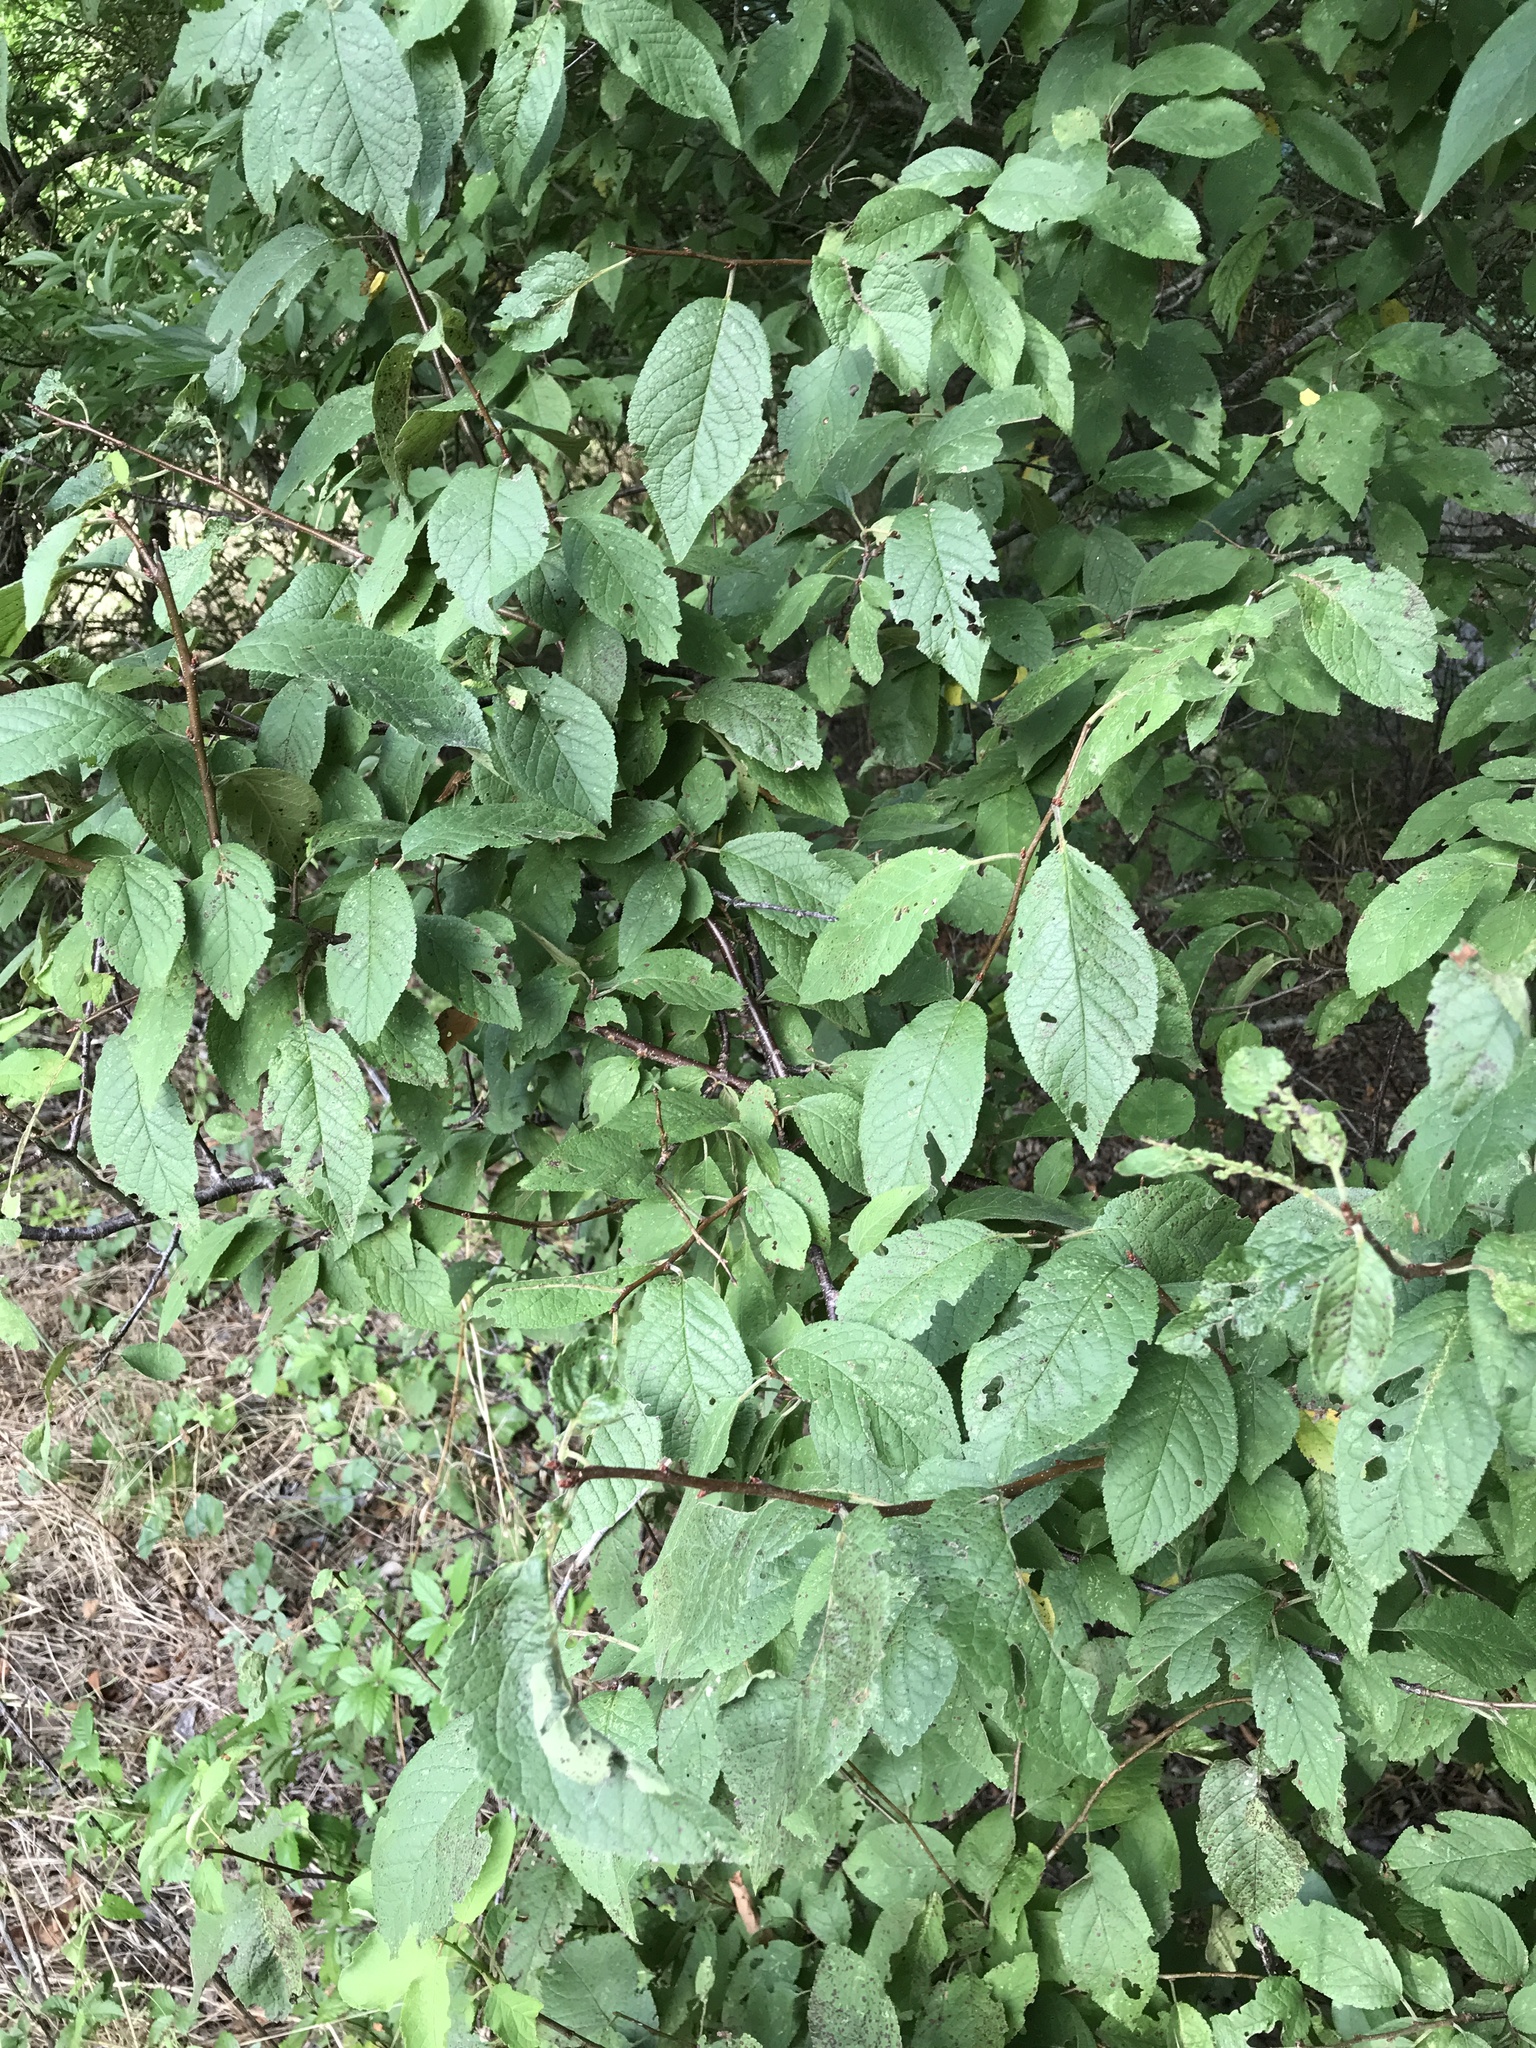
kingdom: Plantae
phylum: Tracheophyta
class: Magnoliopsida
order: Rosales
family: Rosaceae
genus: Prunus
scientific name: Prunus mexicana
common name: Mexican plum
